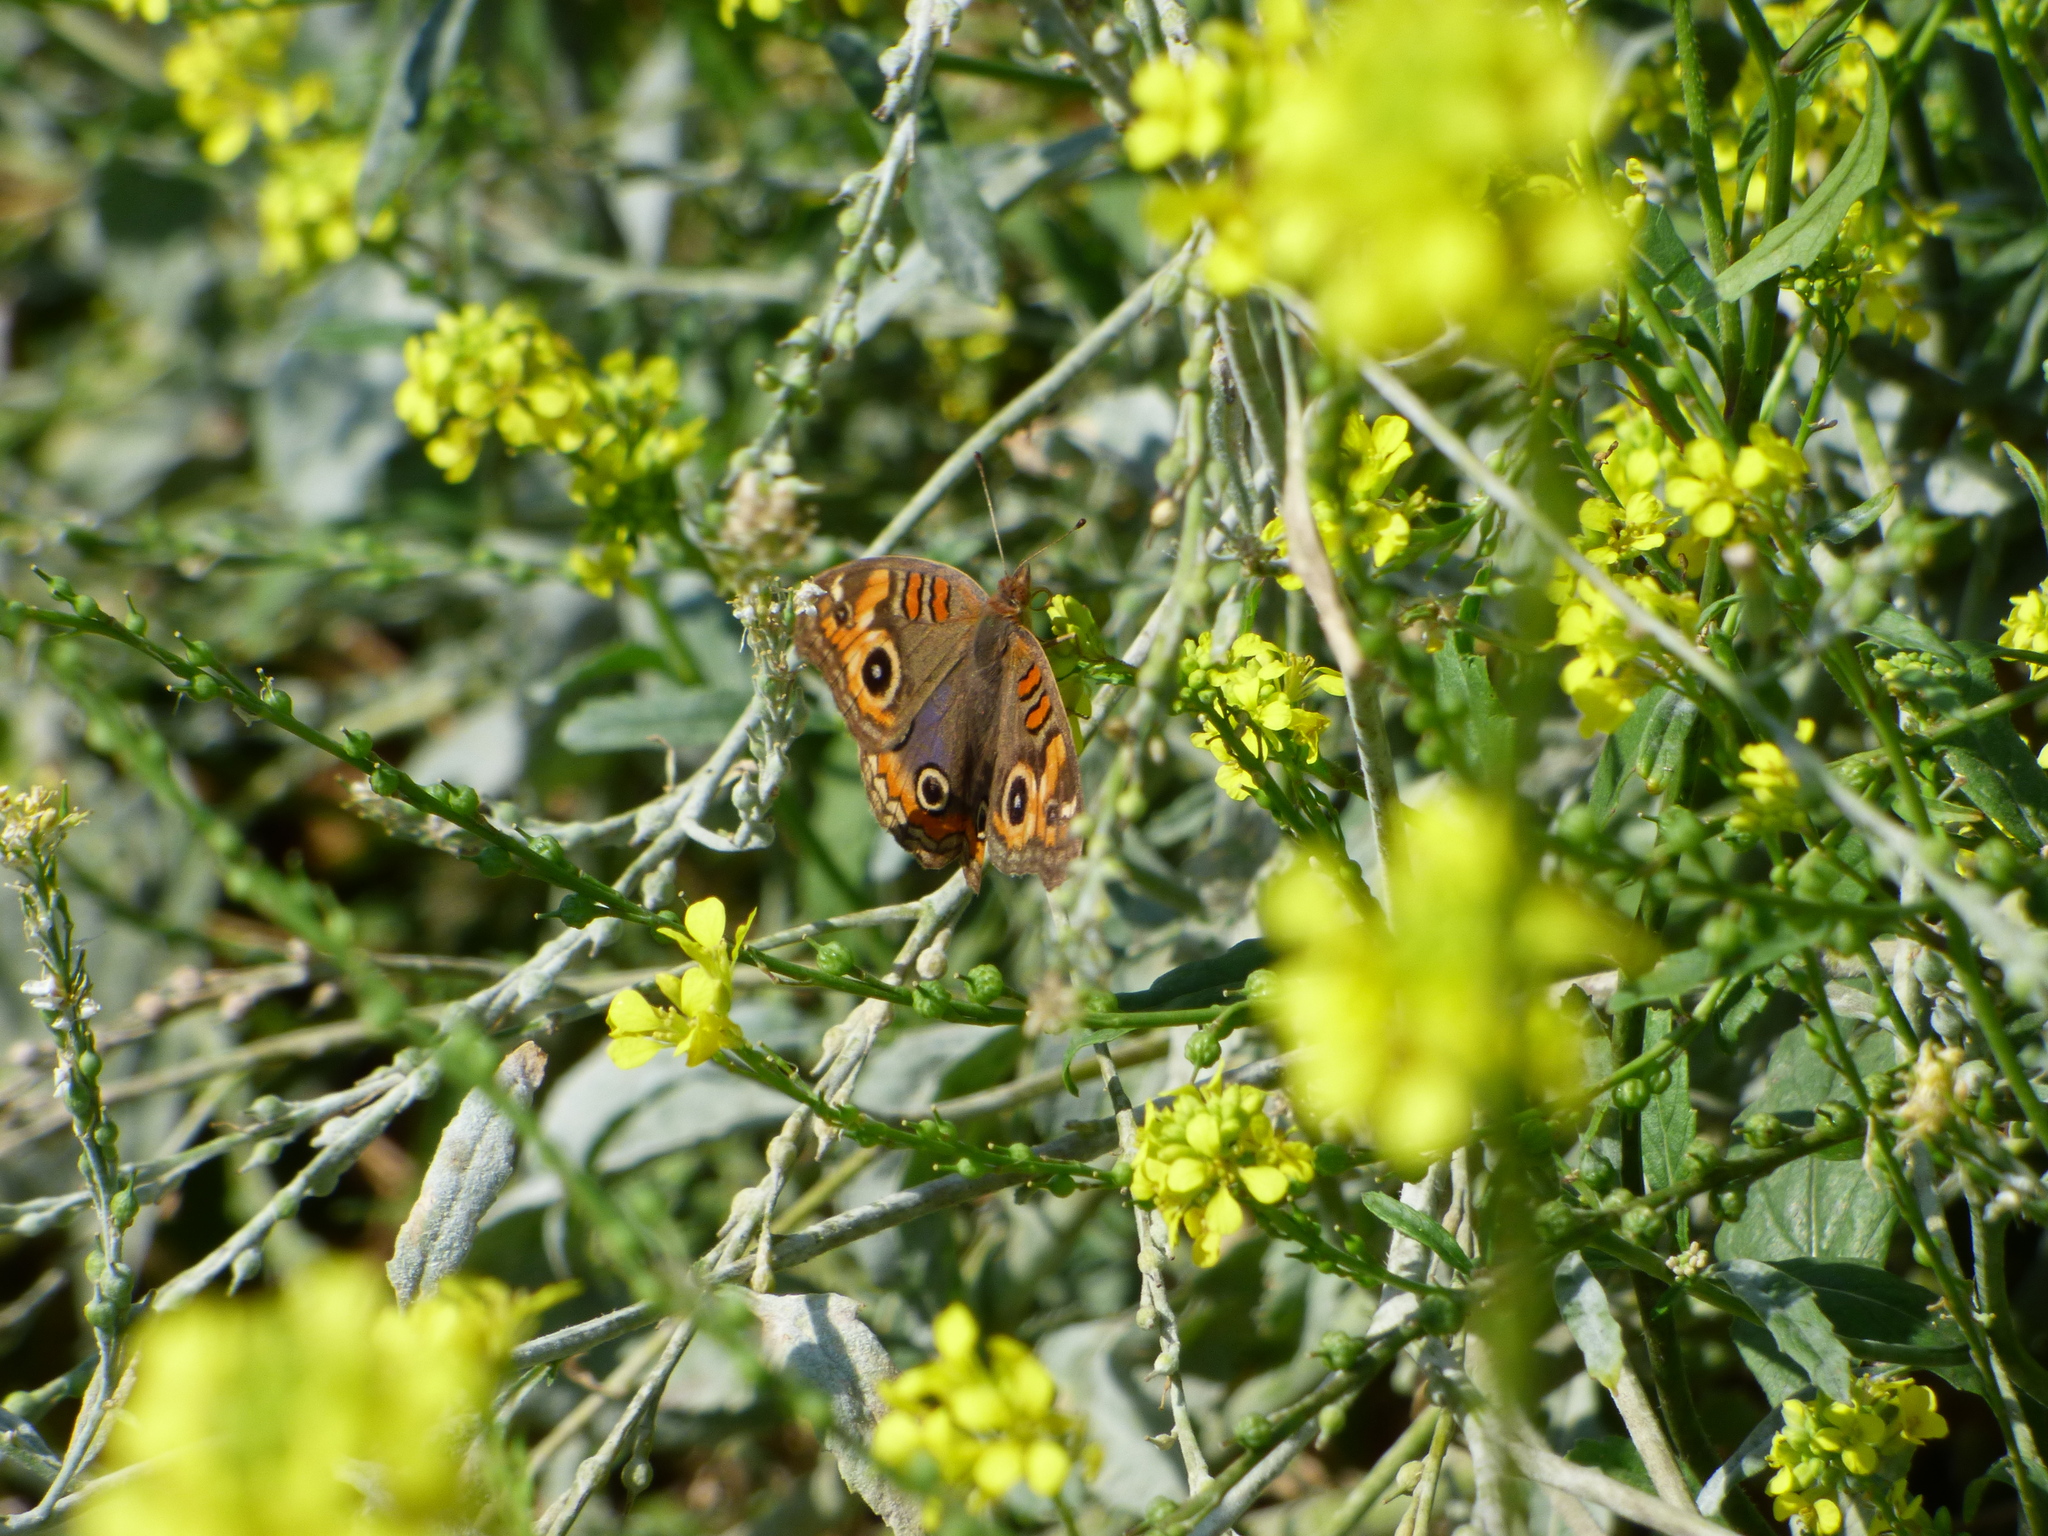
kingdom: Animalia
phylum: Arthropoda
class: Insecta
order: Lepidoptera
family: Nymphalidae
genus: Junonia
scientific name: Junonia lavinia
